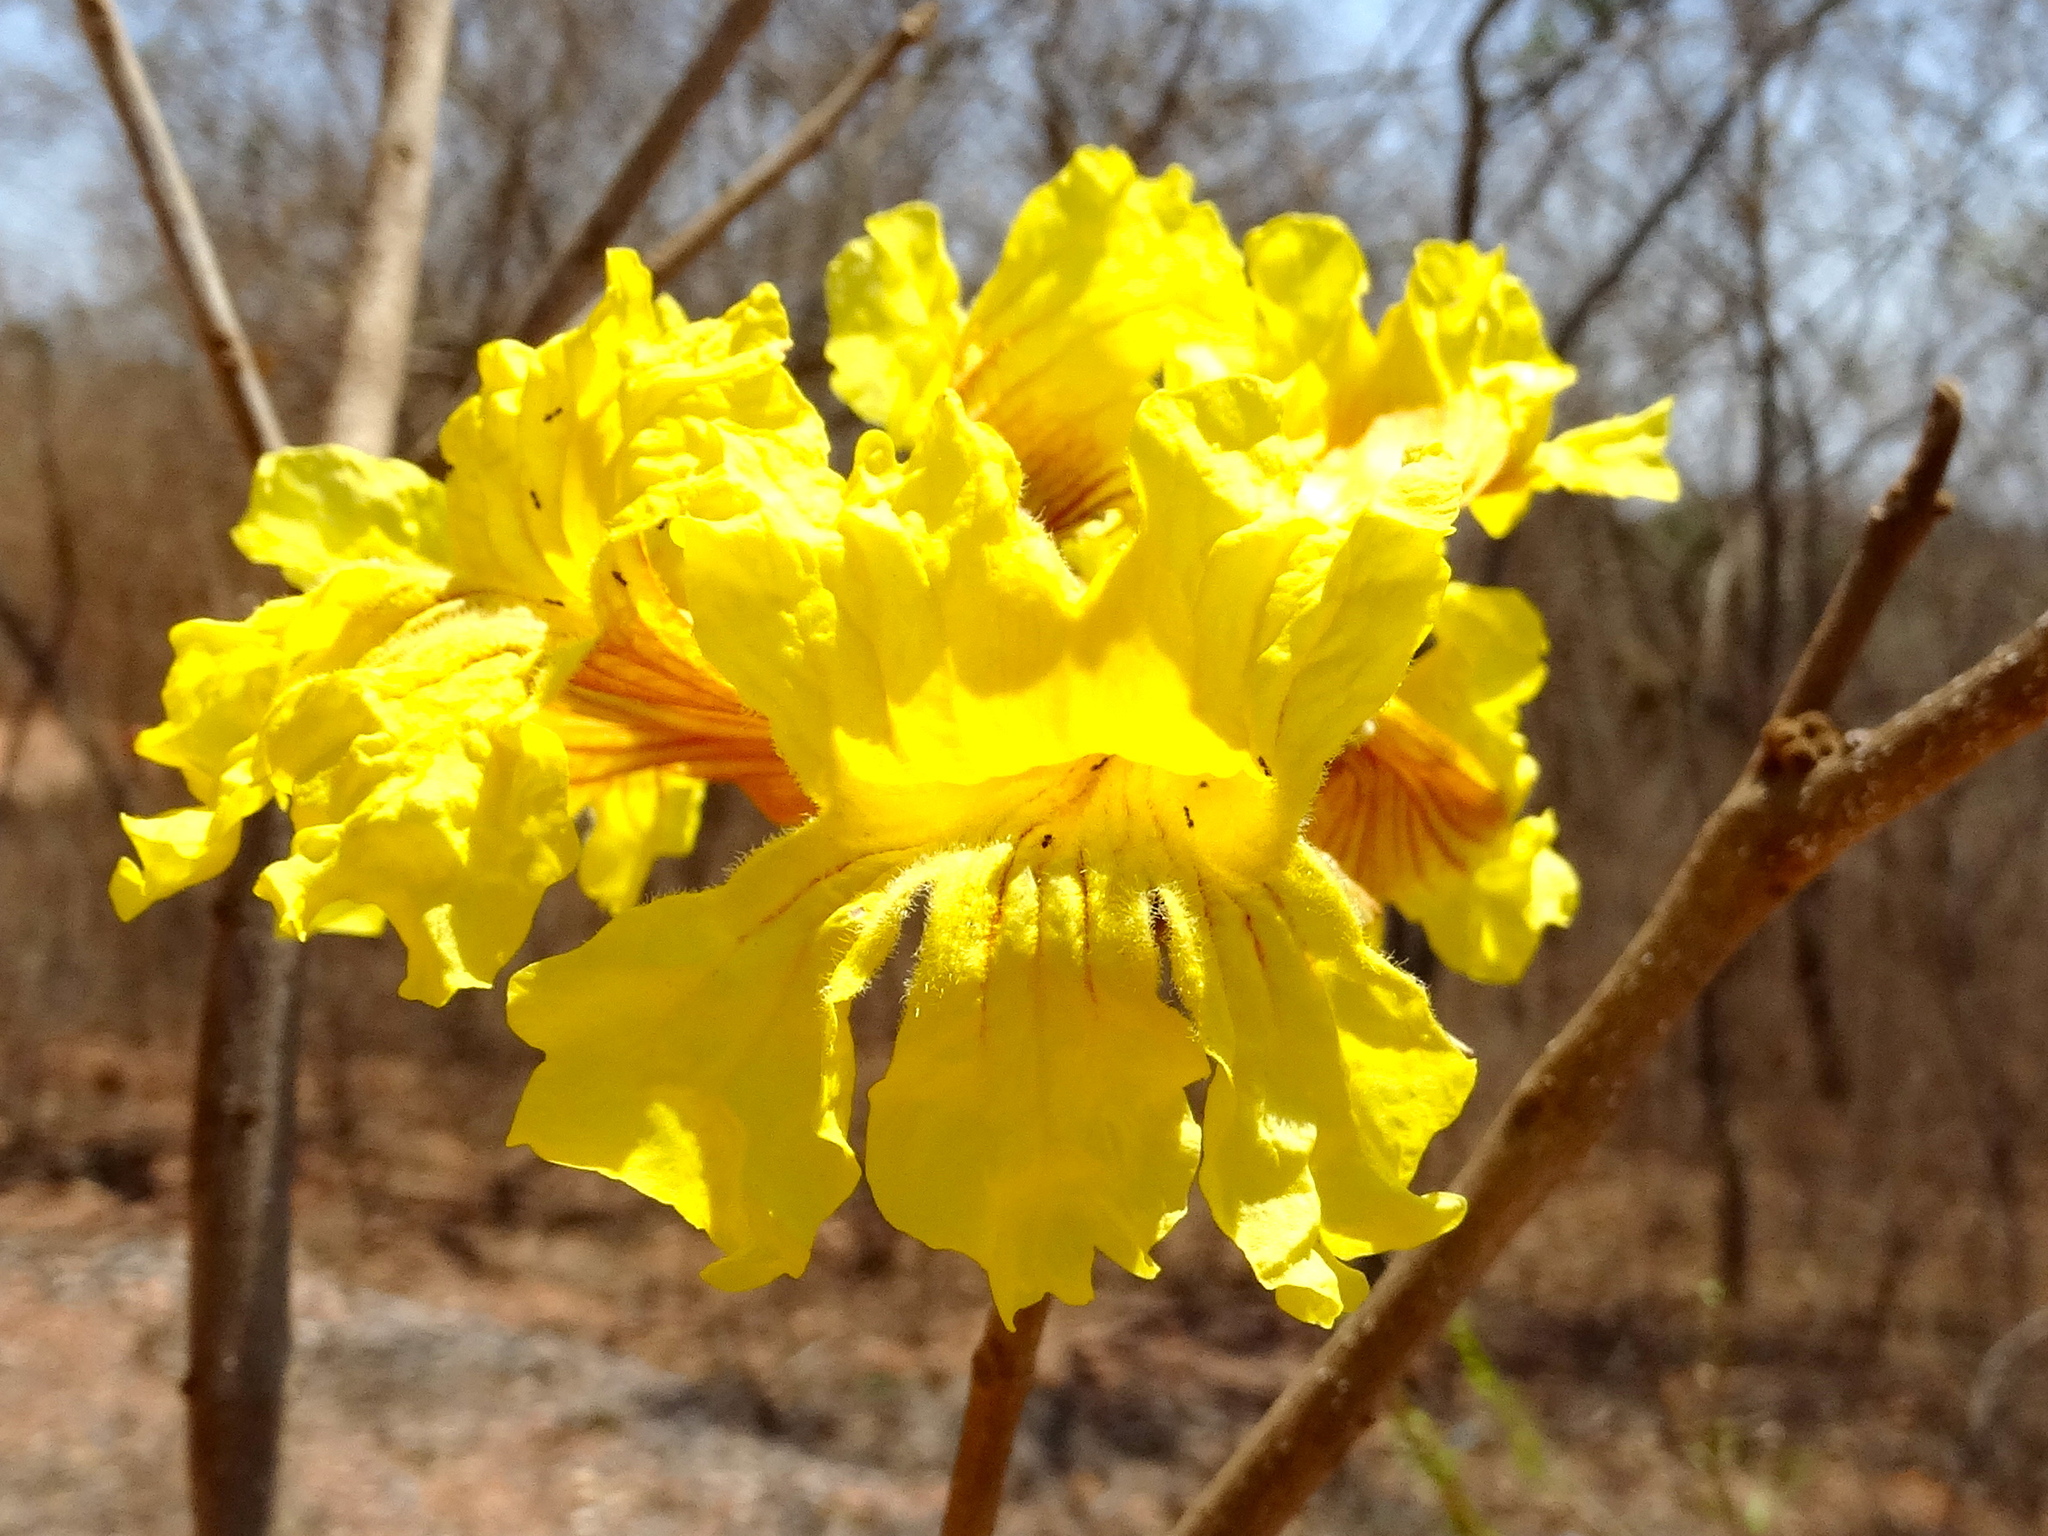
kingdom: Plantae
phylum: Tracheophyta
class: Magnoliopsida
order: Lamiales
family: Bignoniaceae
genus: Handroanthus
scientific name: Handroanthus chrysanthus
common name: Trumpet trees
